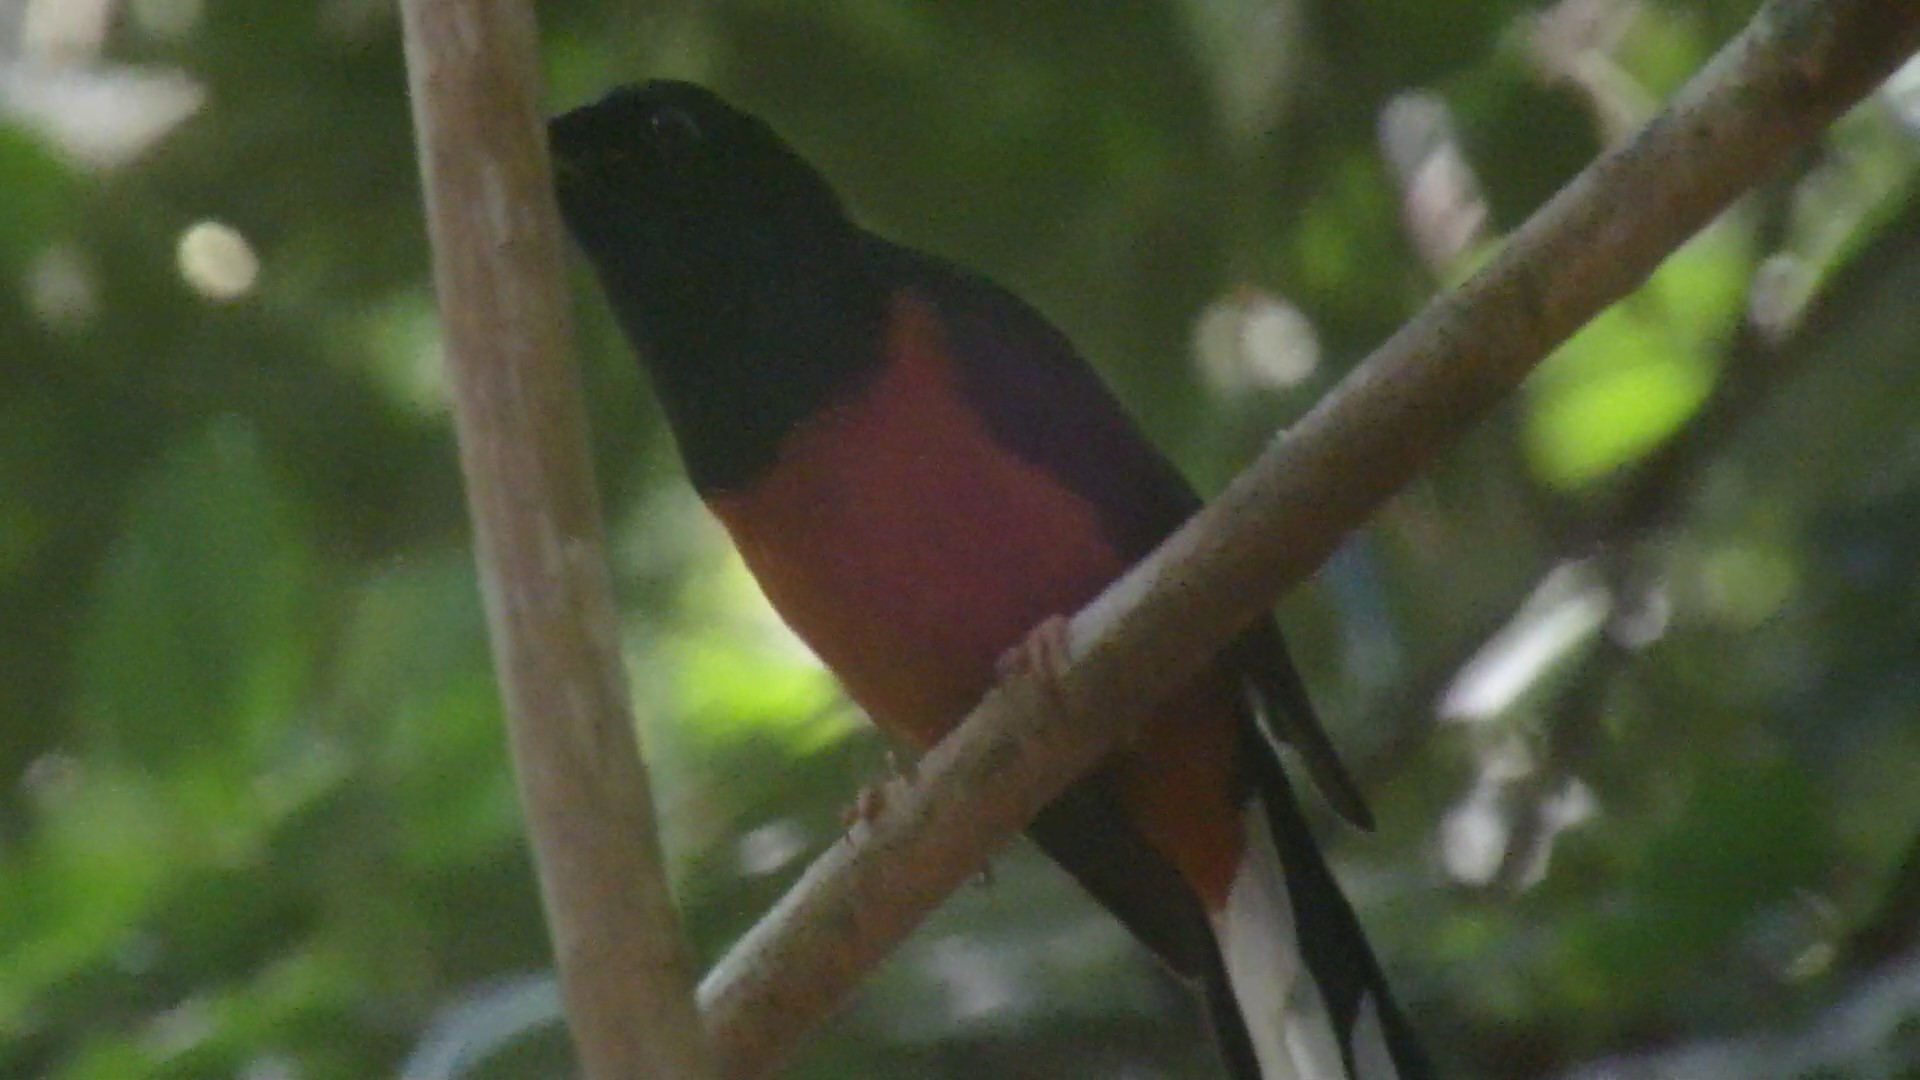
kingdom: Animalia
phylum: Chordata
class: Aves
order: Passeriformes
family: Muscicapidae
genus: Copsychus
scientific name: Copsychus malabaricus
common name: White-rumped shama
